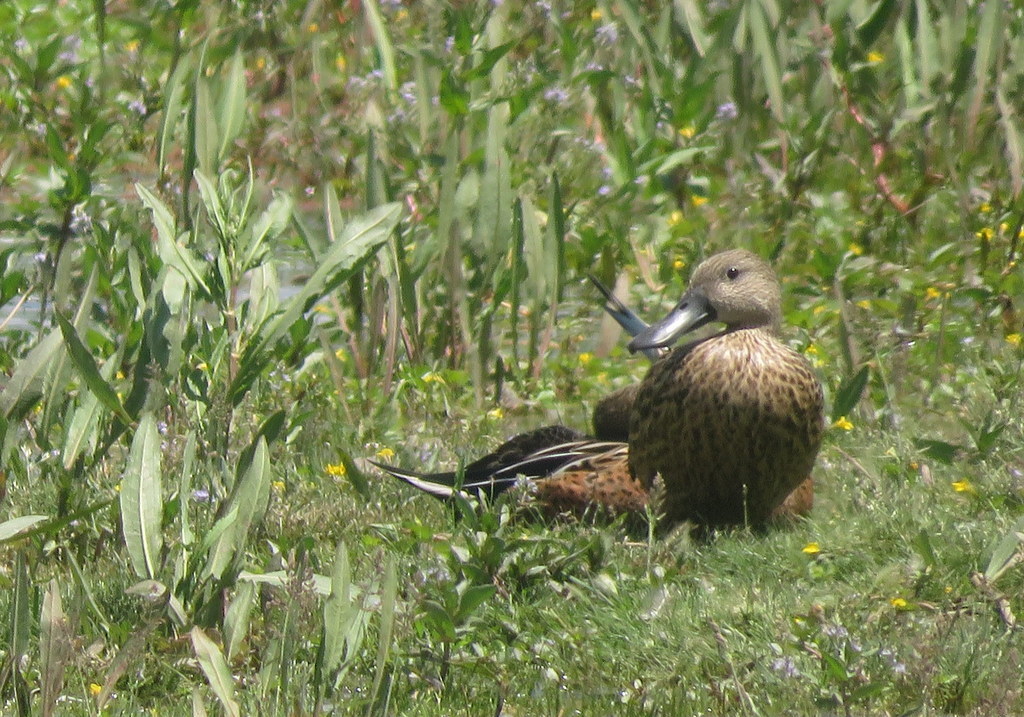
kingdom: Animalia
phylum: Chordata
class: Aves
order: Anseriformes
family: Anatidae
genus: Spatula
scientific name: Spatula platalea
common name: Red shoveler
